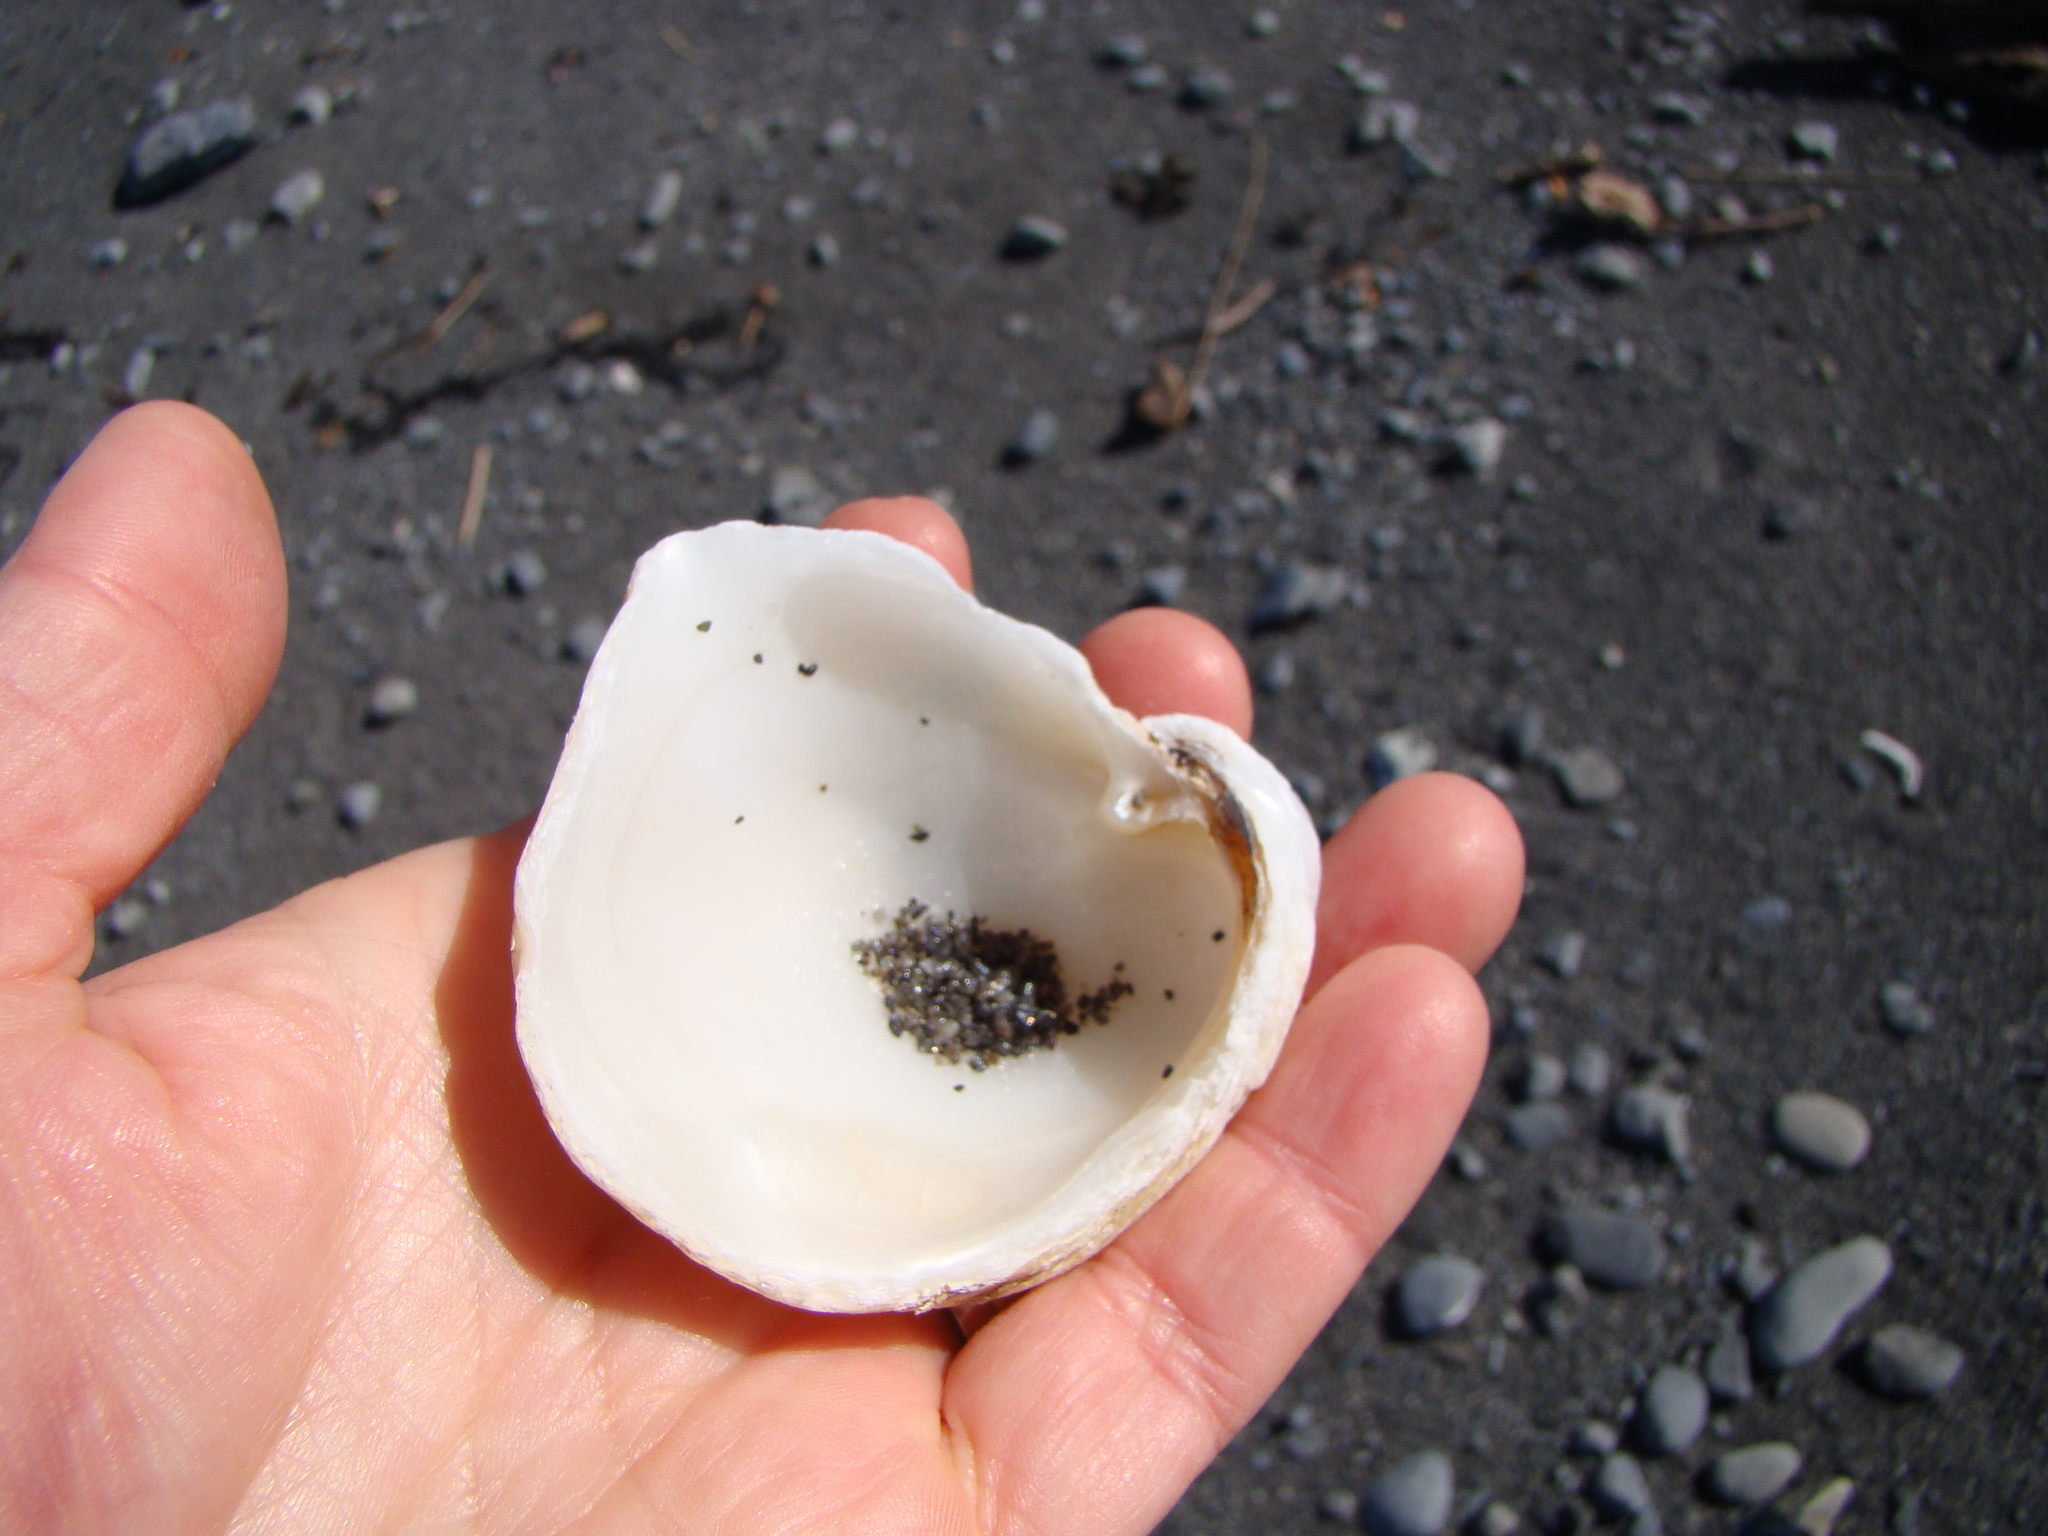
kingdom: Animalia
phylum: Mollusca
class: Bivalvia
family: Cleidothaeridae
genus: Cleidothaerus
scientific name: Cleidothaerus albidus
